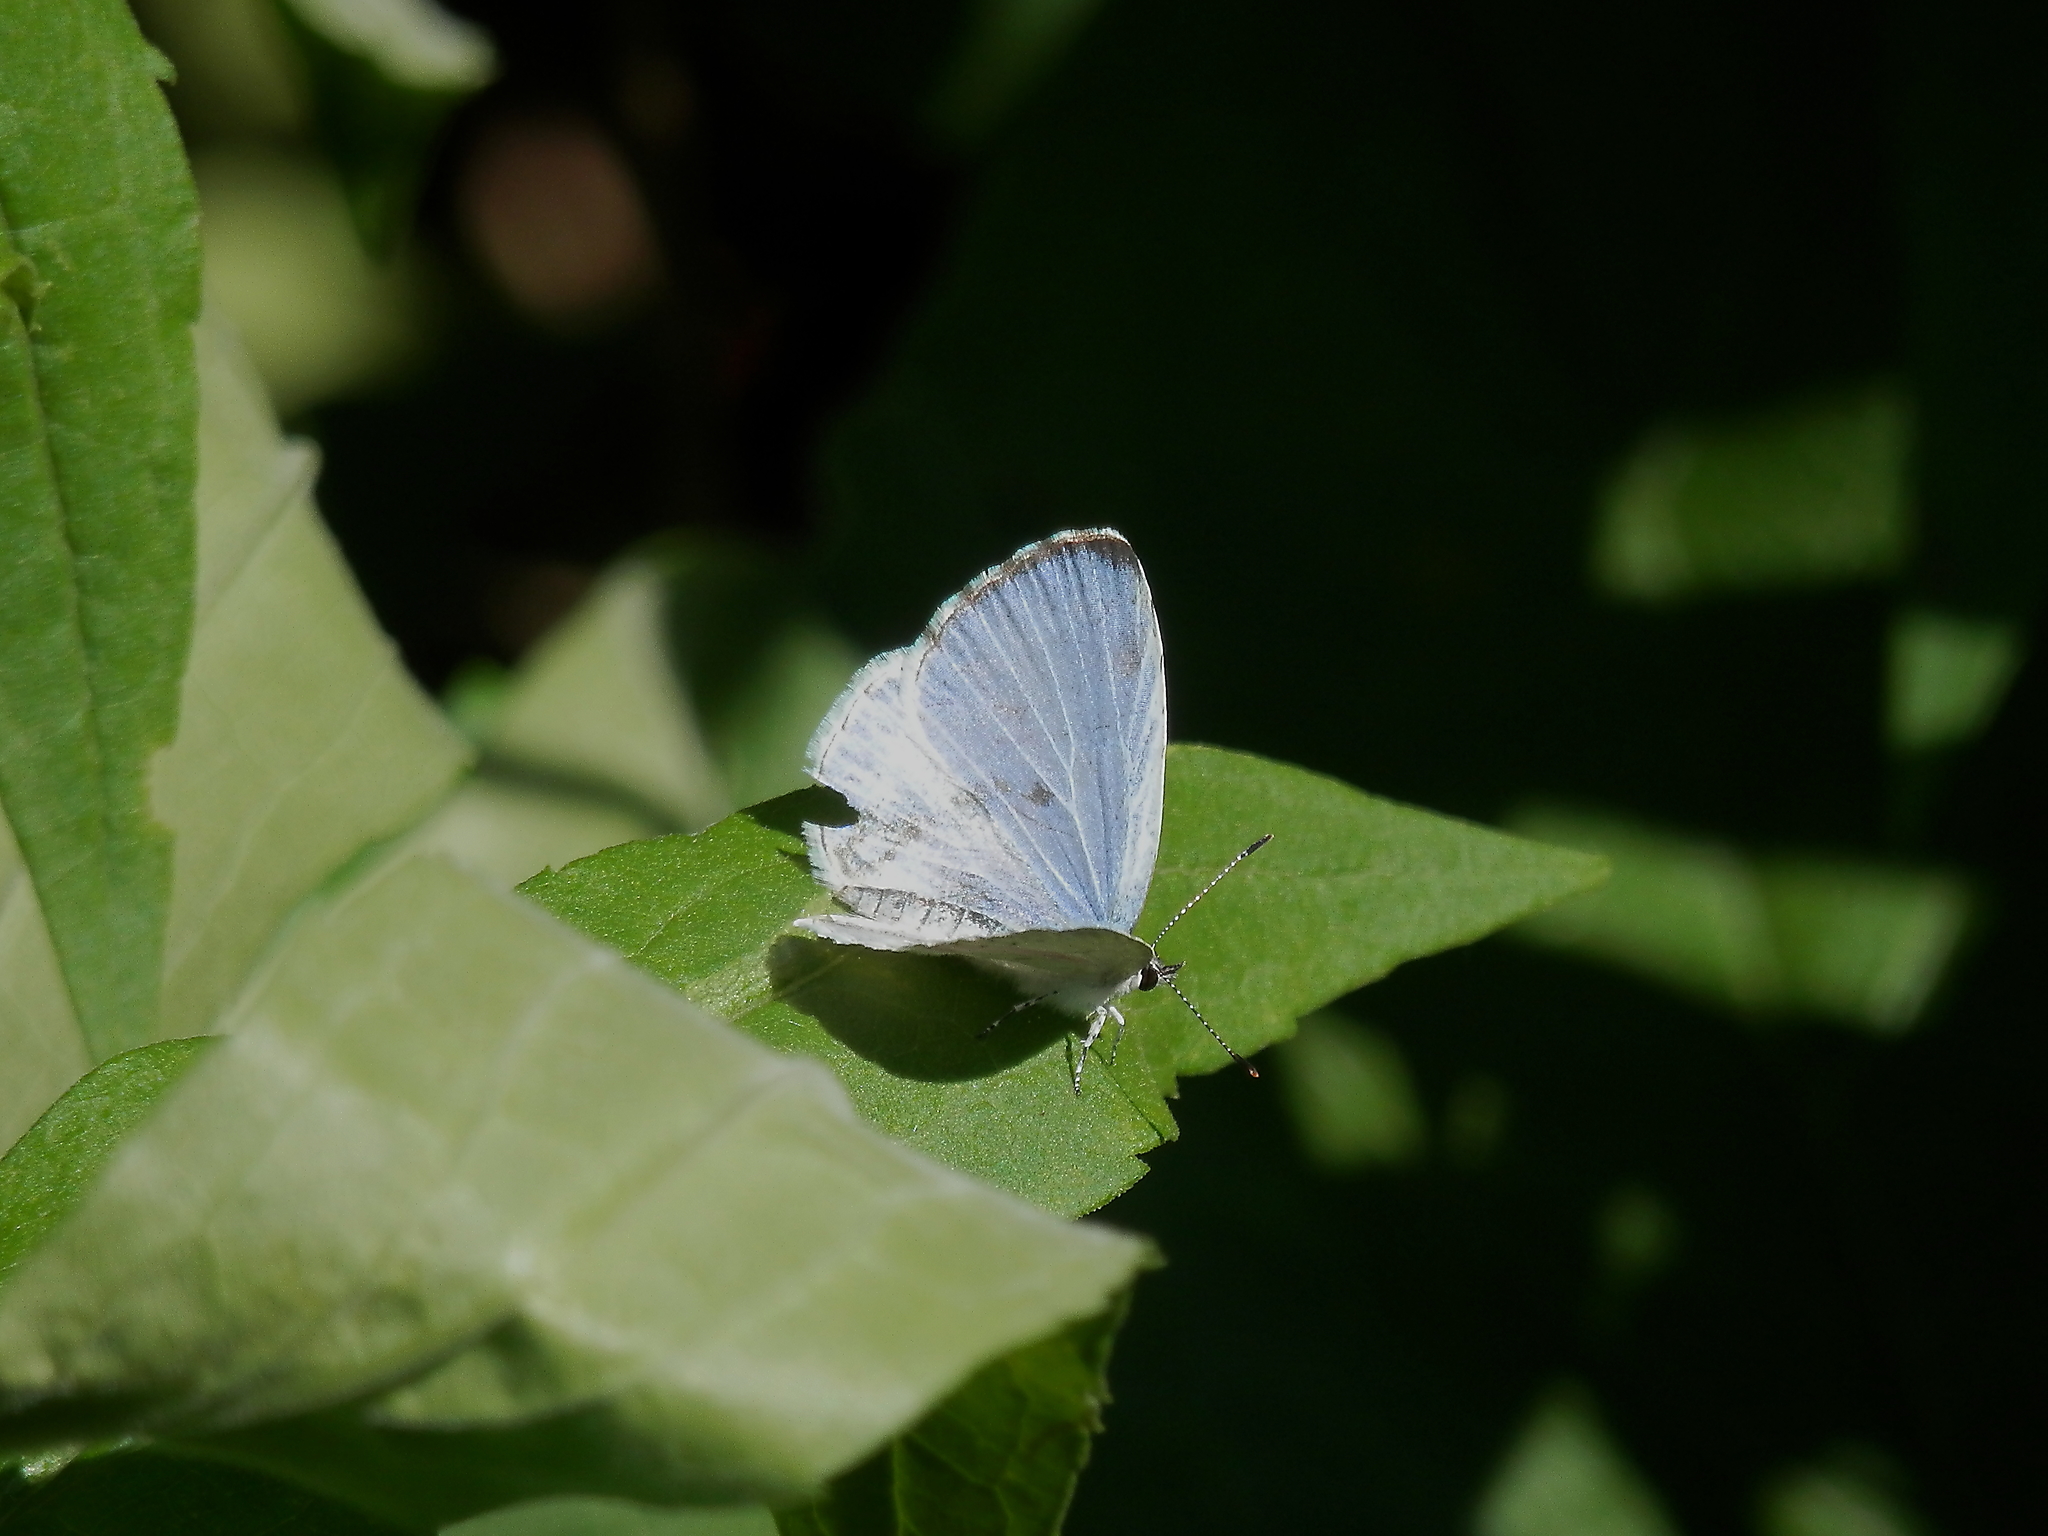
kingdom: Animalia
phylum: Arthropoda
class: Insecta
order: Lepidoptera
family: Lycaenidae
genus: Cyaniris
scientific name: Cyaniris neglecta
